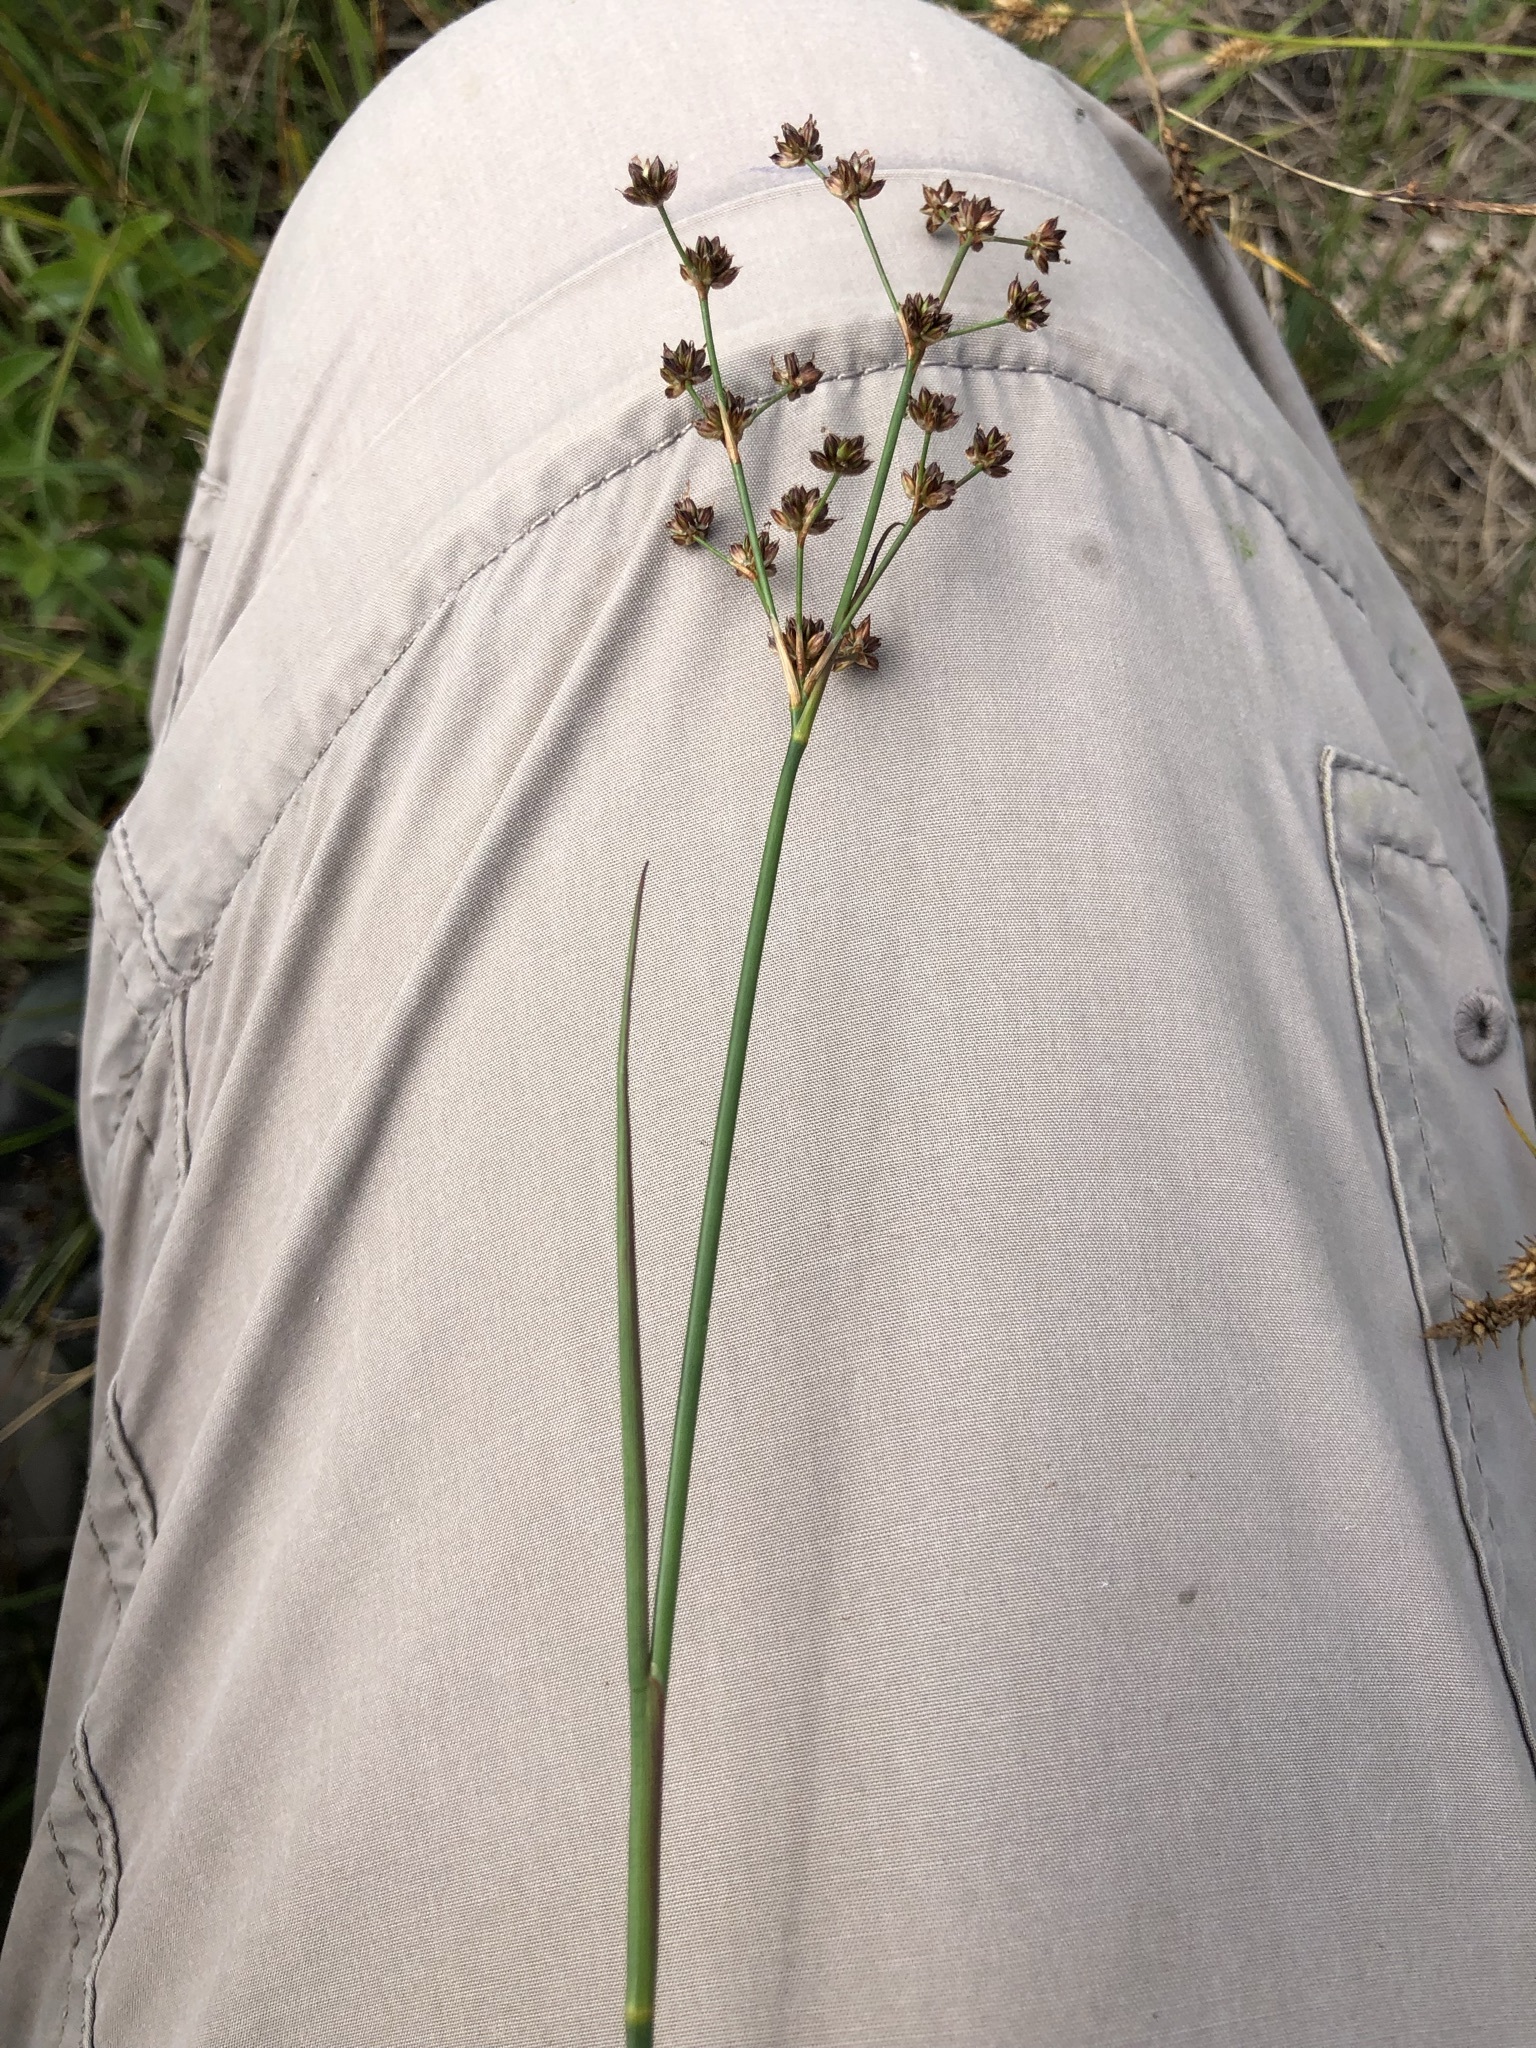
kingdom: Plantae
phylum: Tracheophyta
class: Liliopsida
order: Poales
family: Juncaceae
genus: Juncus
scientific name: Juncus articulatus
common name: Jointed rush
